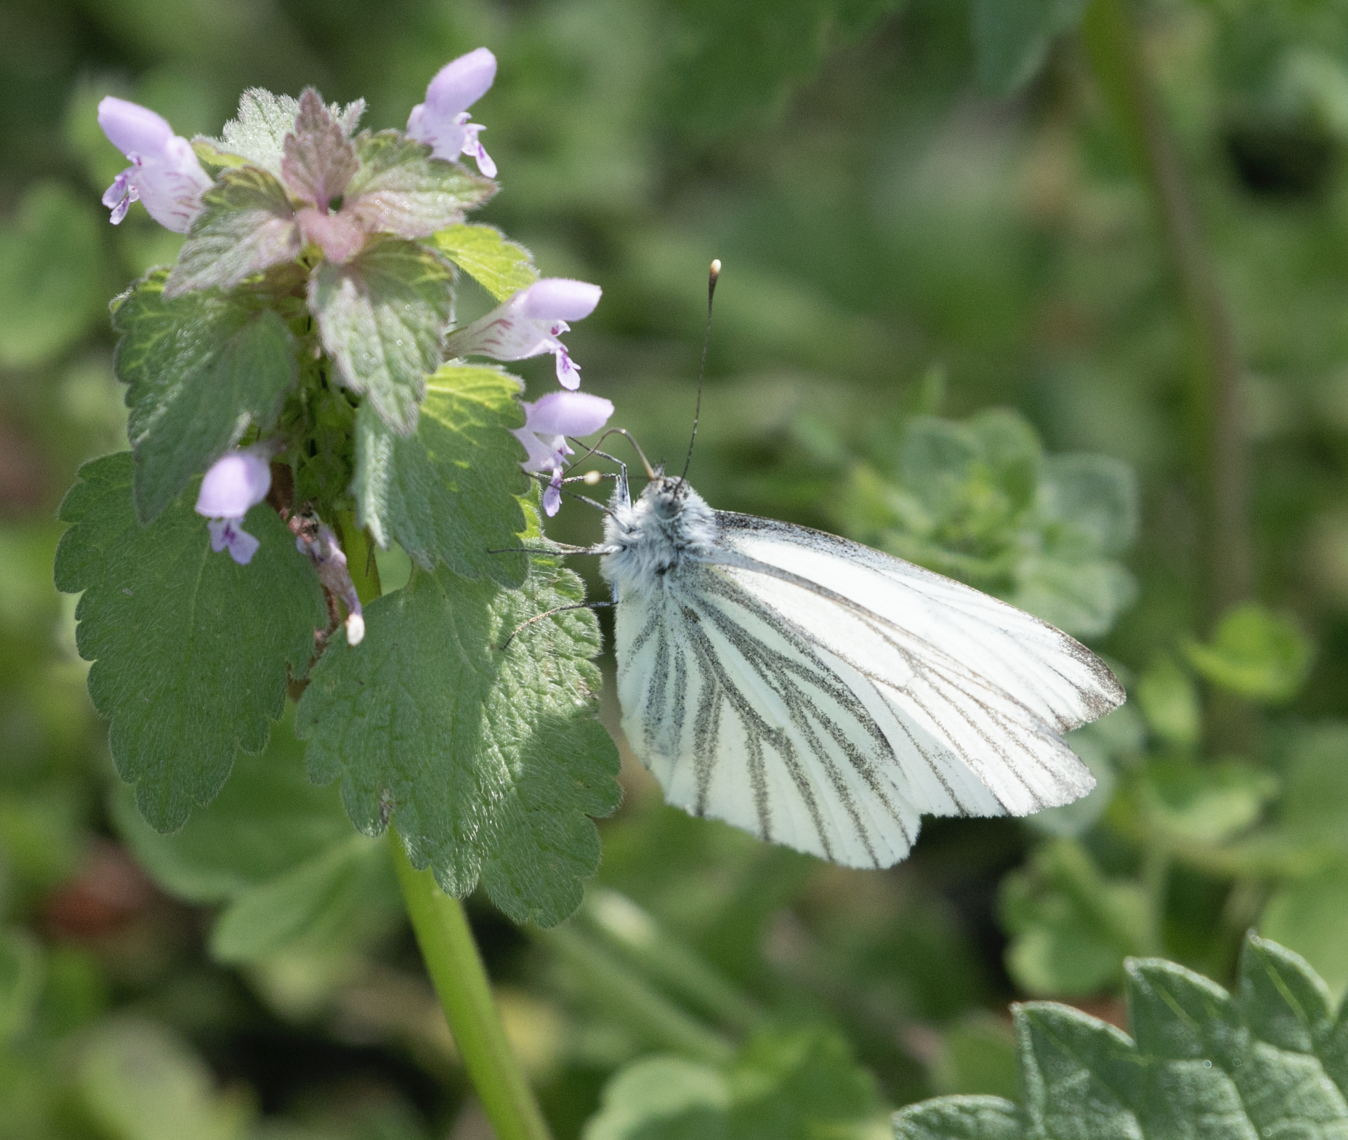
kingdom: Animalia
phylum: Arthropoda
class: Insecta
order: Lepidoptera
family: Pieridae
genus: Pieris
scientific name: Pieris napi
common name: Green-veined white
